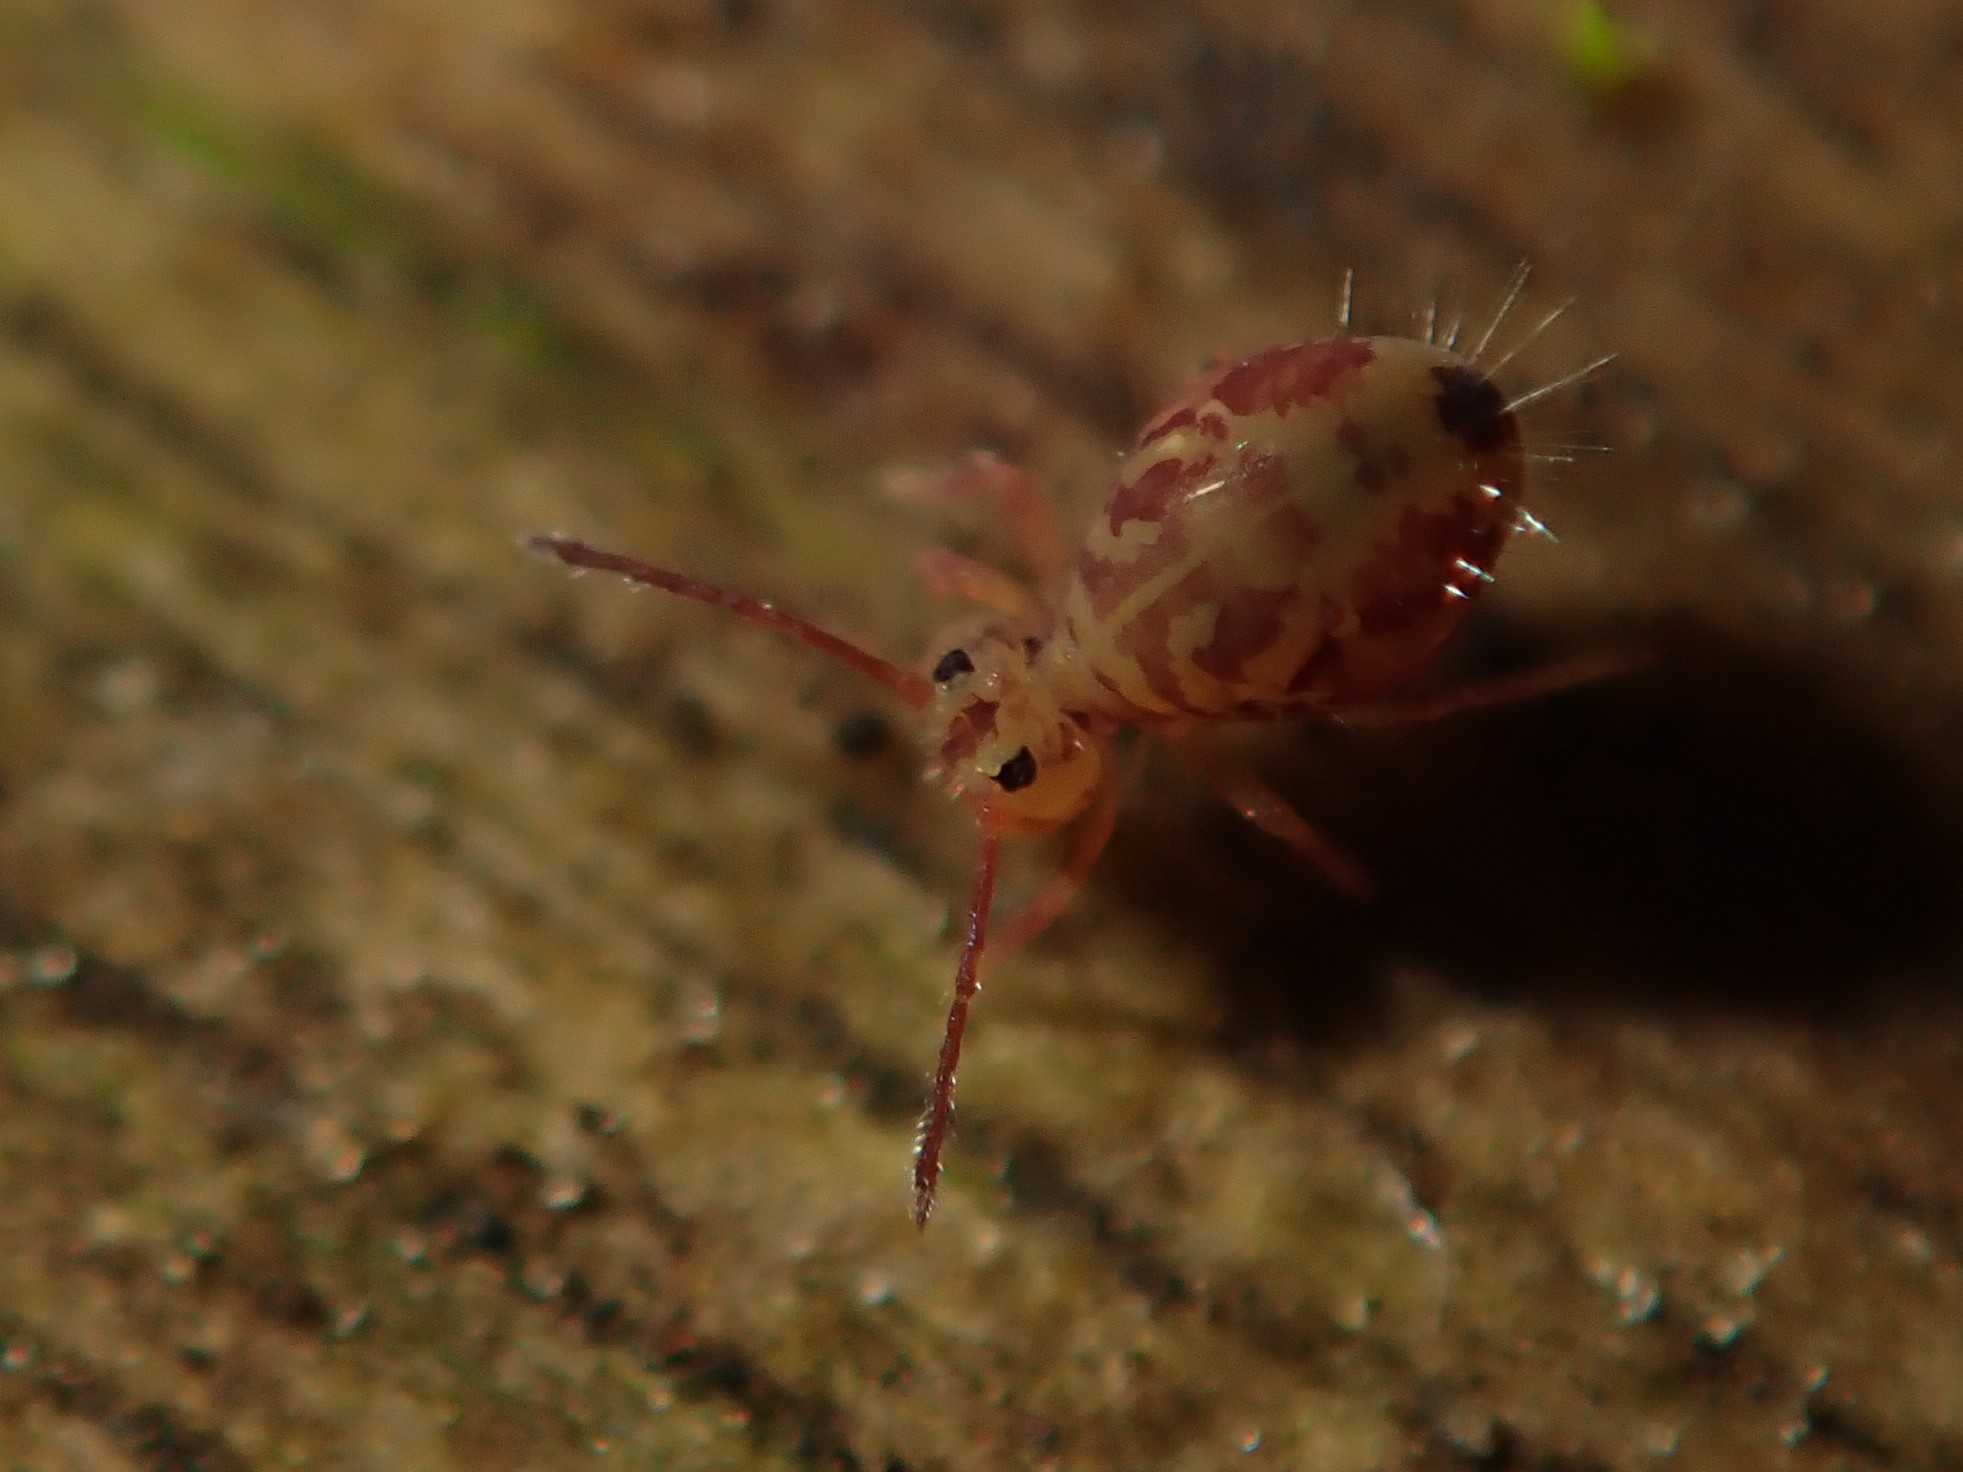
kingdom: Animalia
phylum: Arthropoda
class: Collembola
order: Symphypleona
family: Dicyrtomidae
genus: Dicyrtomina
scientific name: Dicyrtomina ornata
